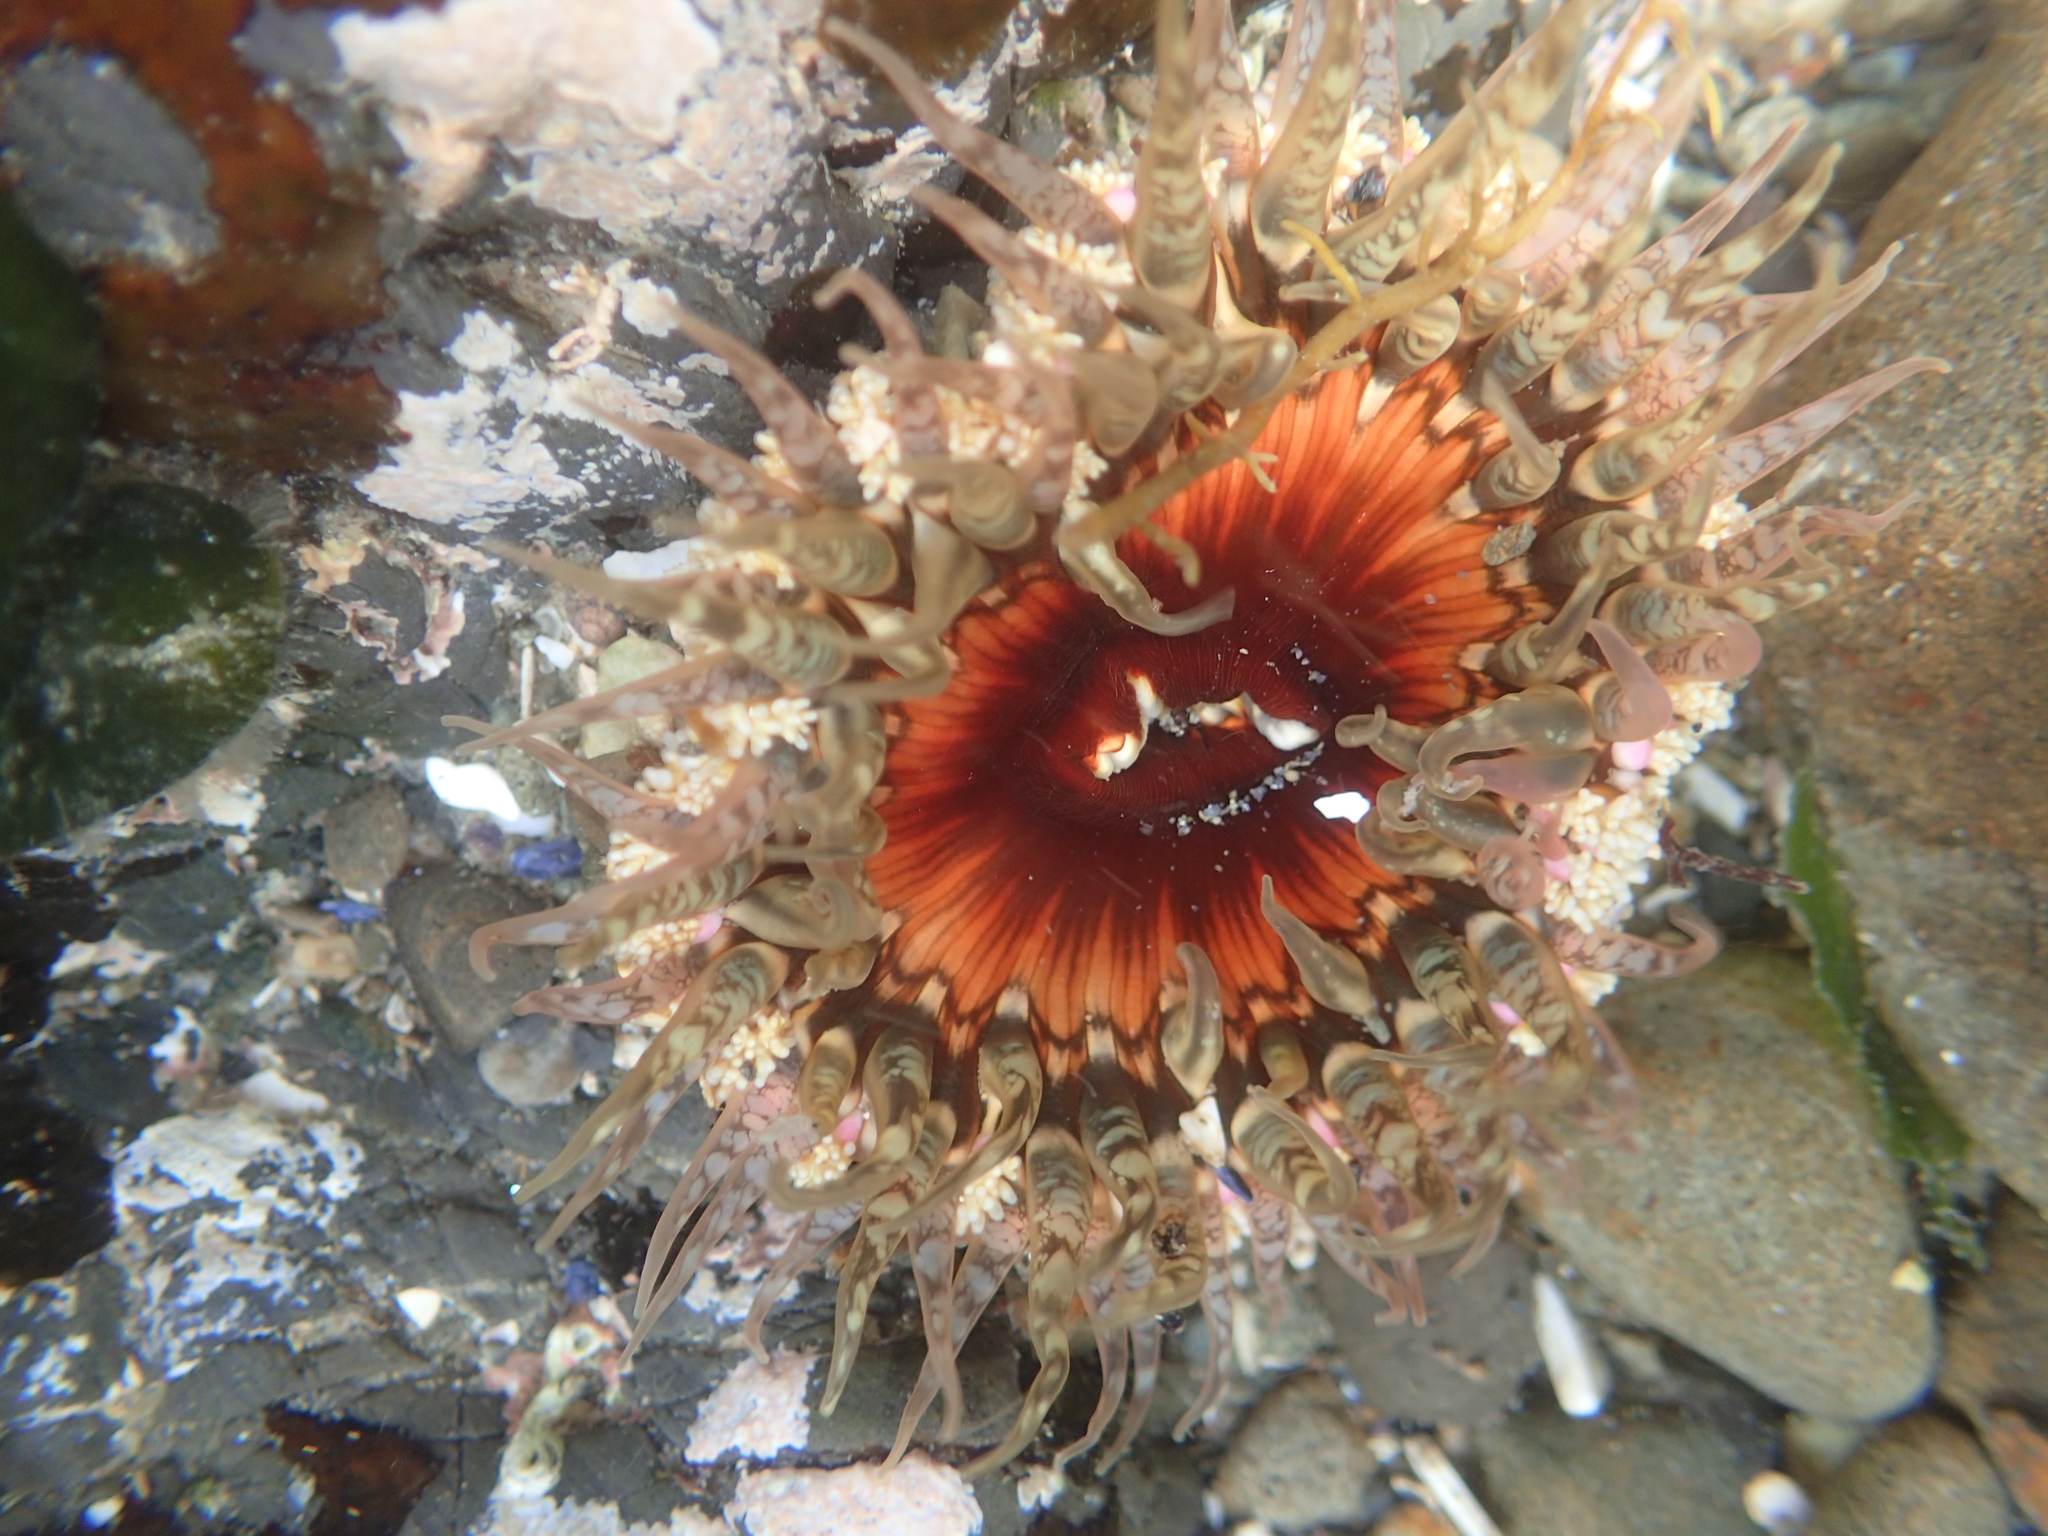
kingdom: Animalia
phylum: Cnidaria
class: Anthozoa
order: Actiniaria
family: Actiniidae
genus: Oulactis
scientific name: Oulactis muscosa
